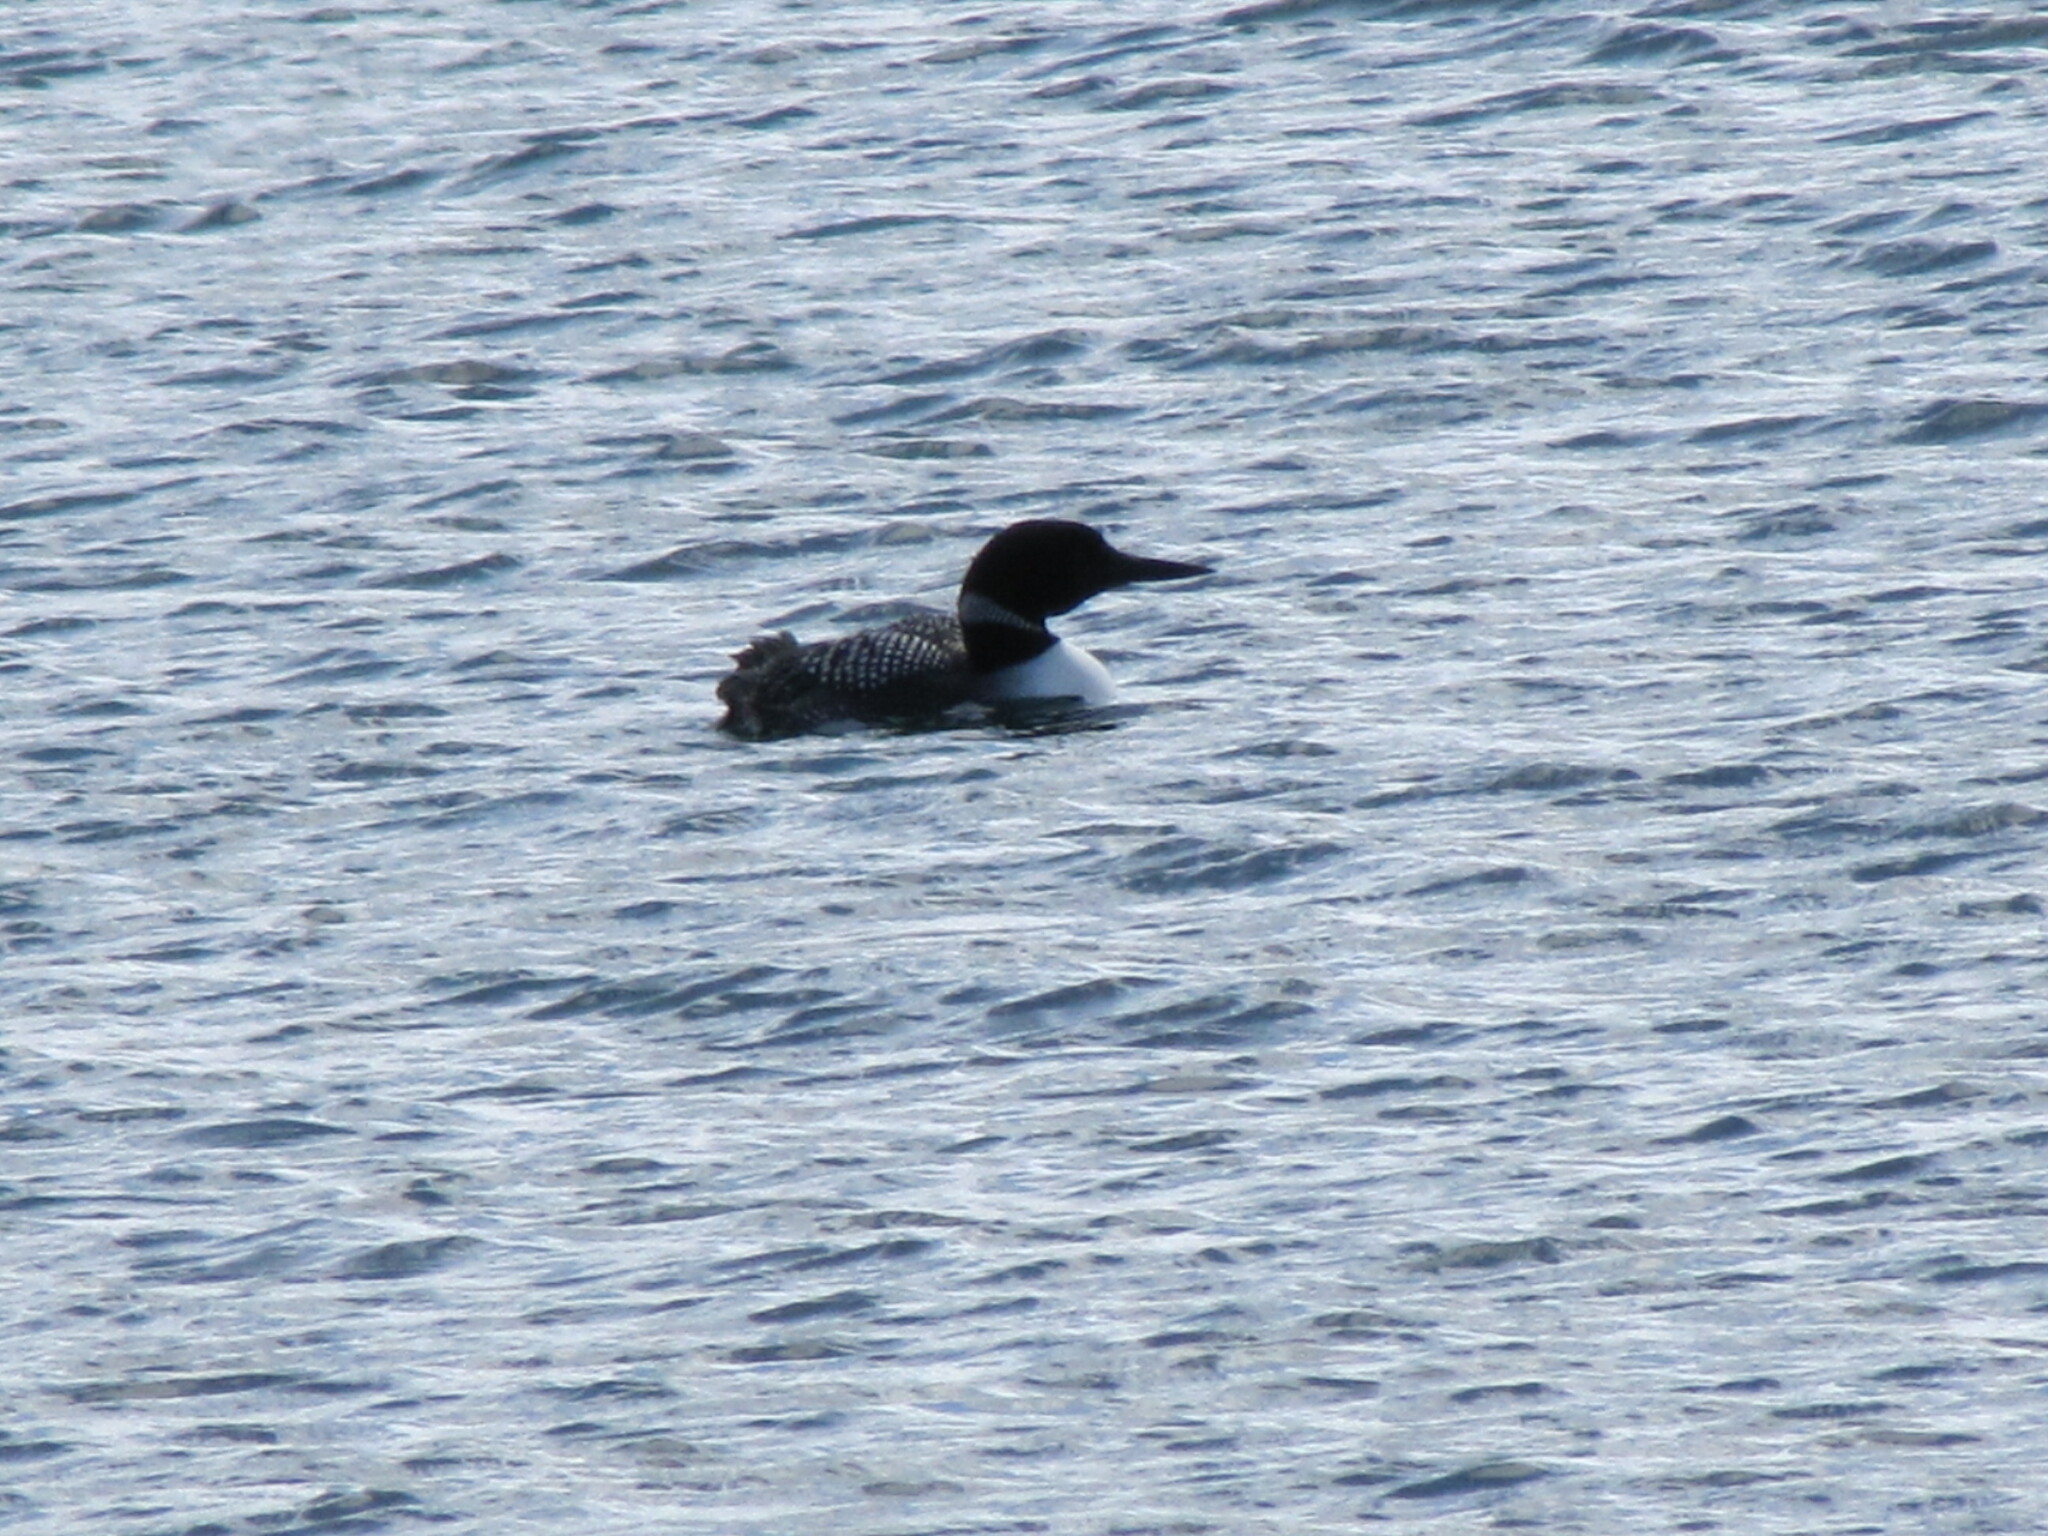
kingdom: Animalia
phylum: Chordata
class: Aves
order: Gaviiformes
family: Gaviidae
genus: Gavia
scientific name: Gavia immer
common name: Common loon
